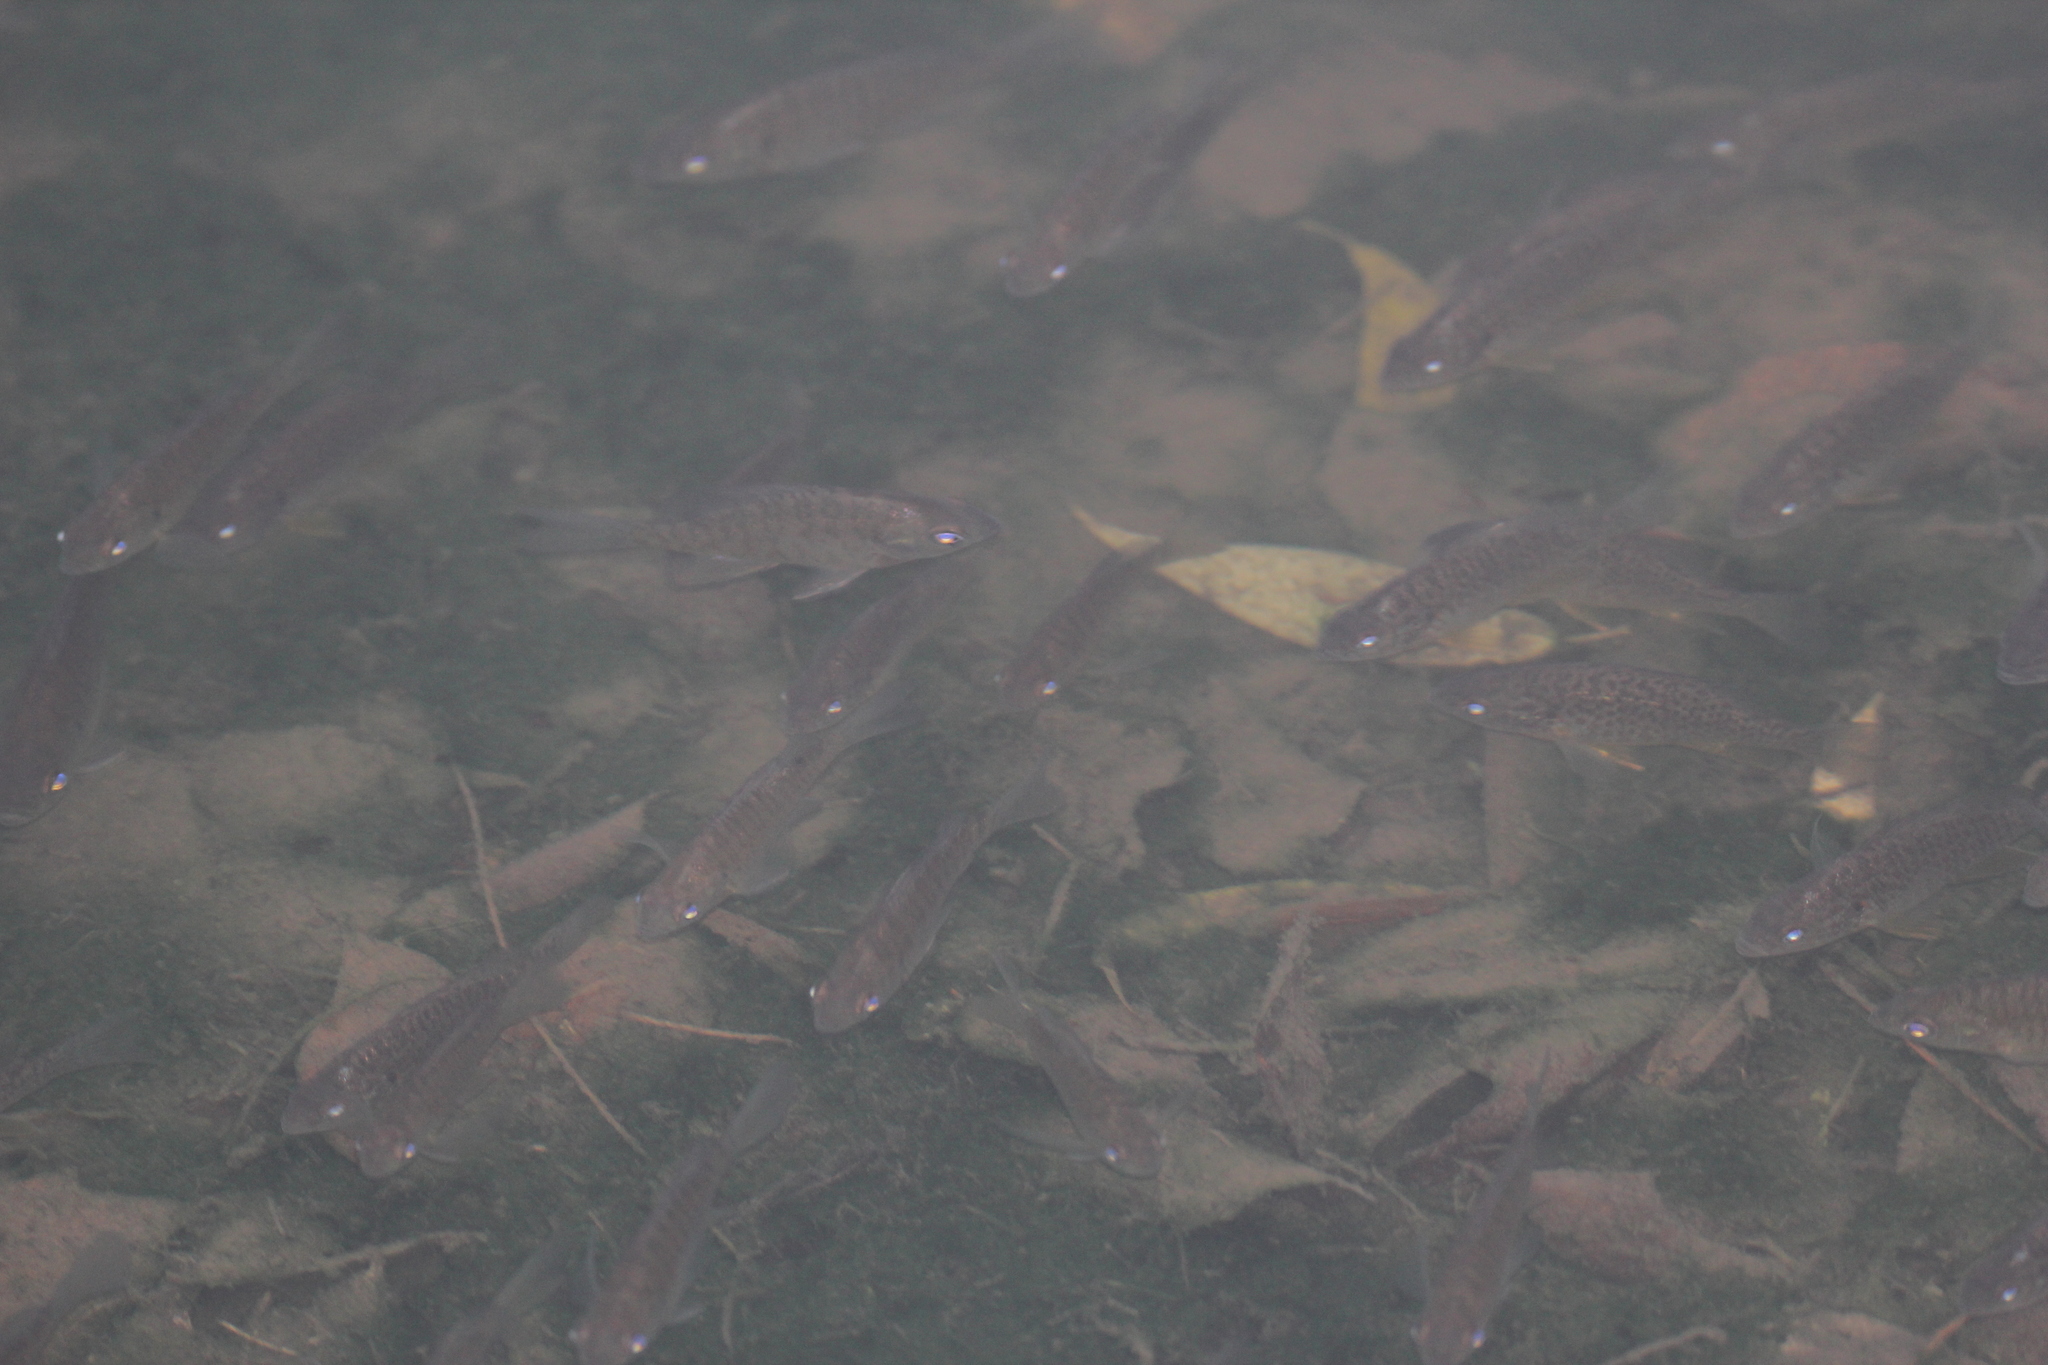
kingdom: Animalia
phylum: Chordata
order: Perciformes
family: Centrarchidae
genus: Lepomis
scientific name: Lepomis gibbosus
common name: Pumpkinseed
